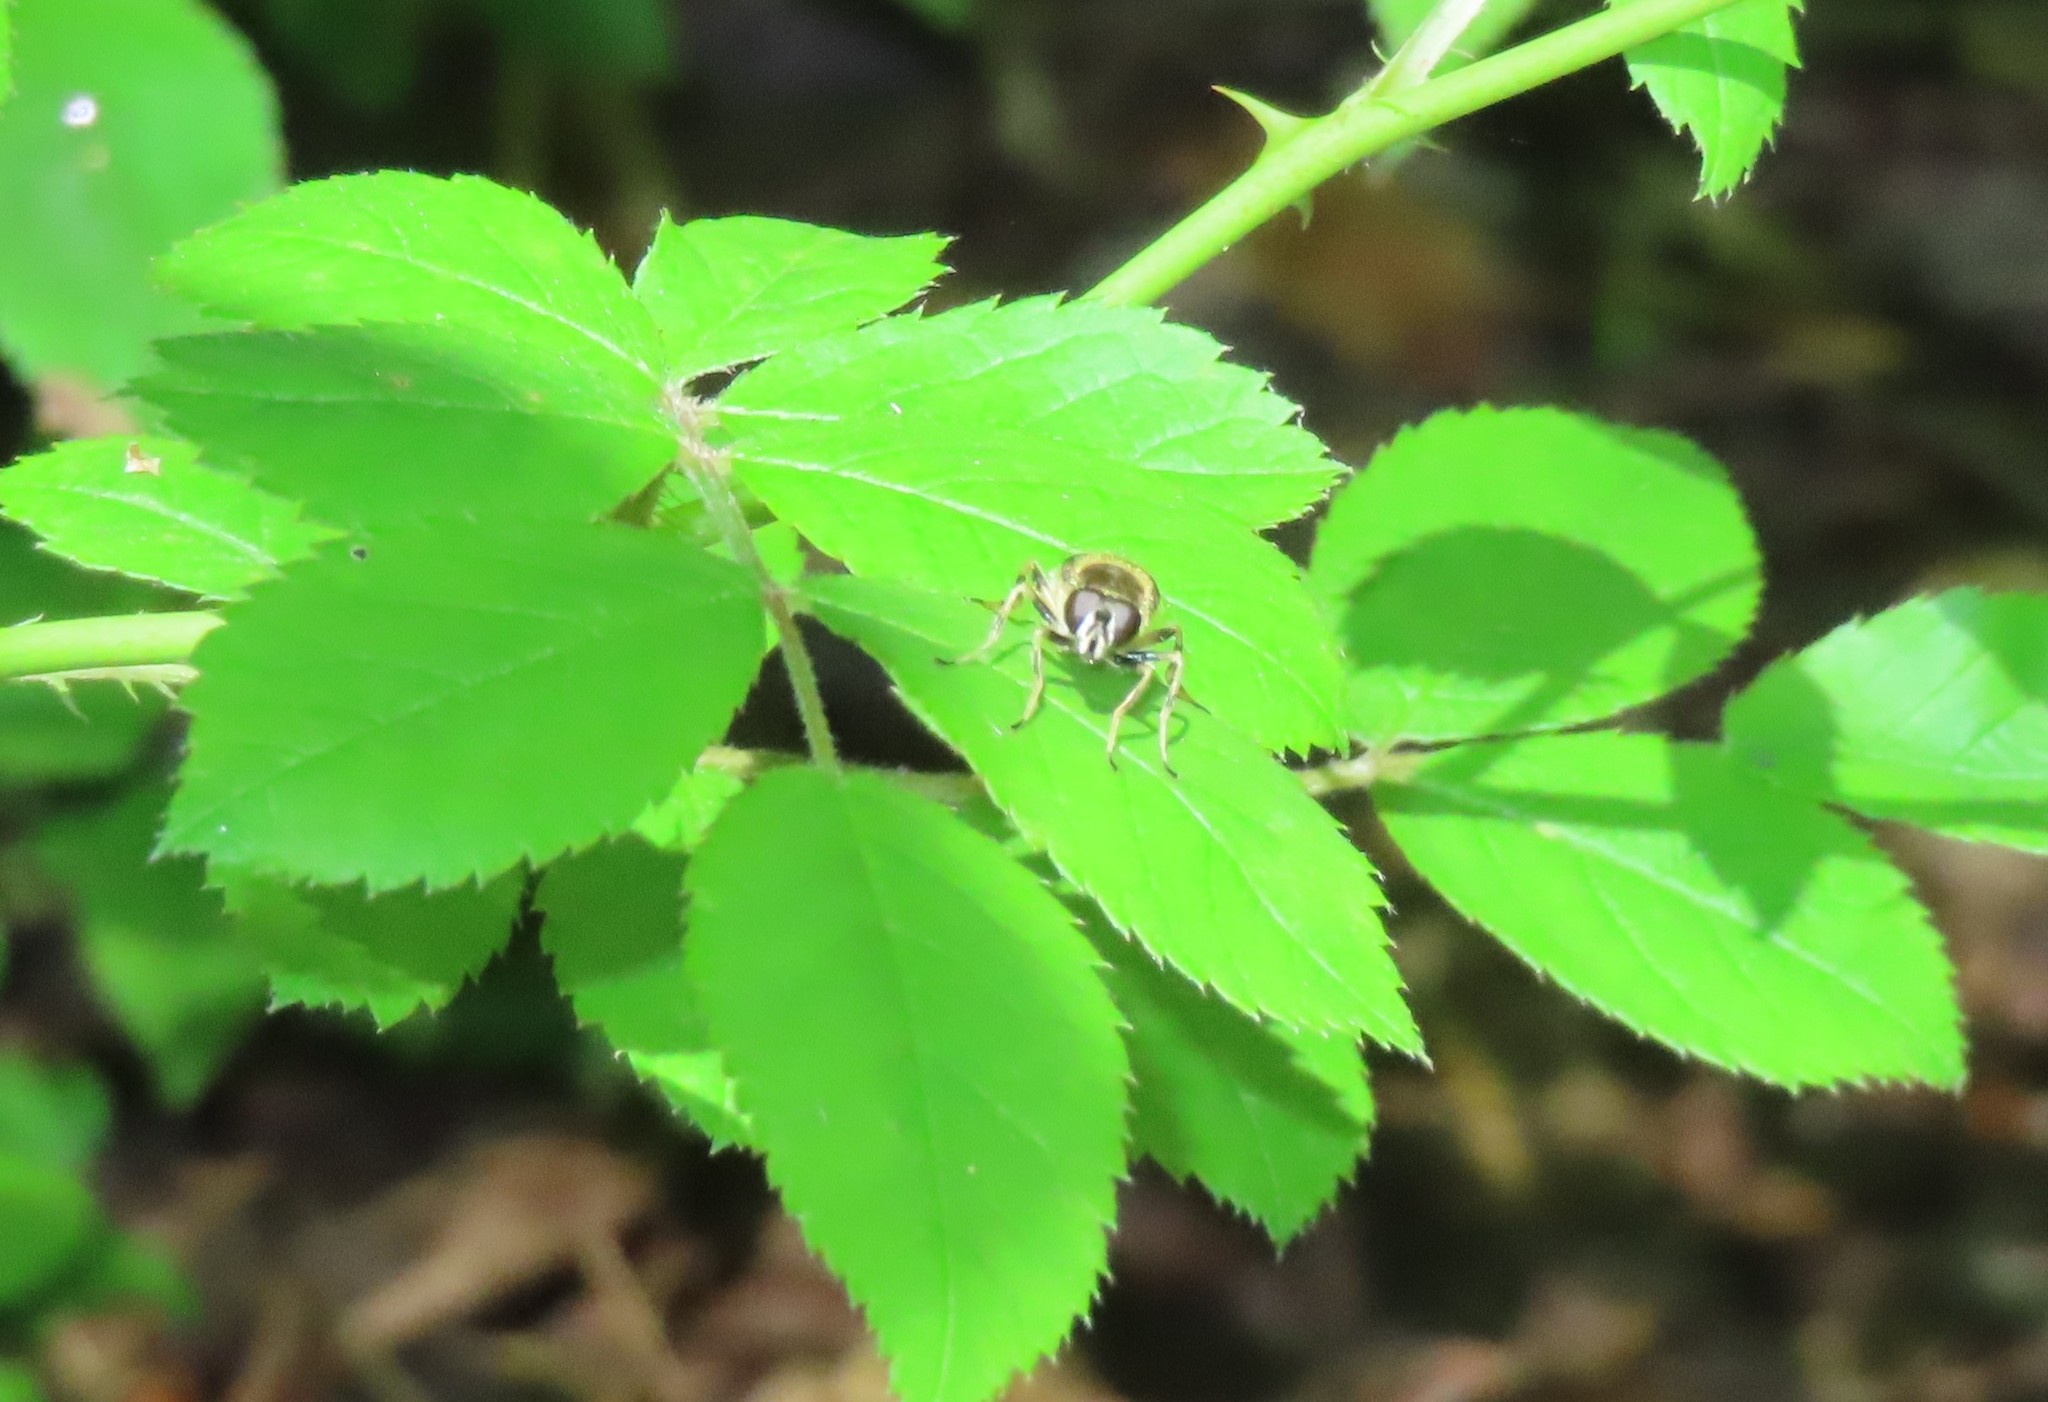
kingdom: Animalia
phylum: Arthropoda
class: Insecta
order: Diptera
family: Syrphidae
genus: Blera
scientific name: Blera badia
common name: Common wood fly
